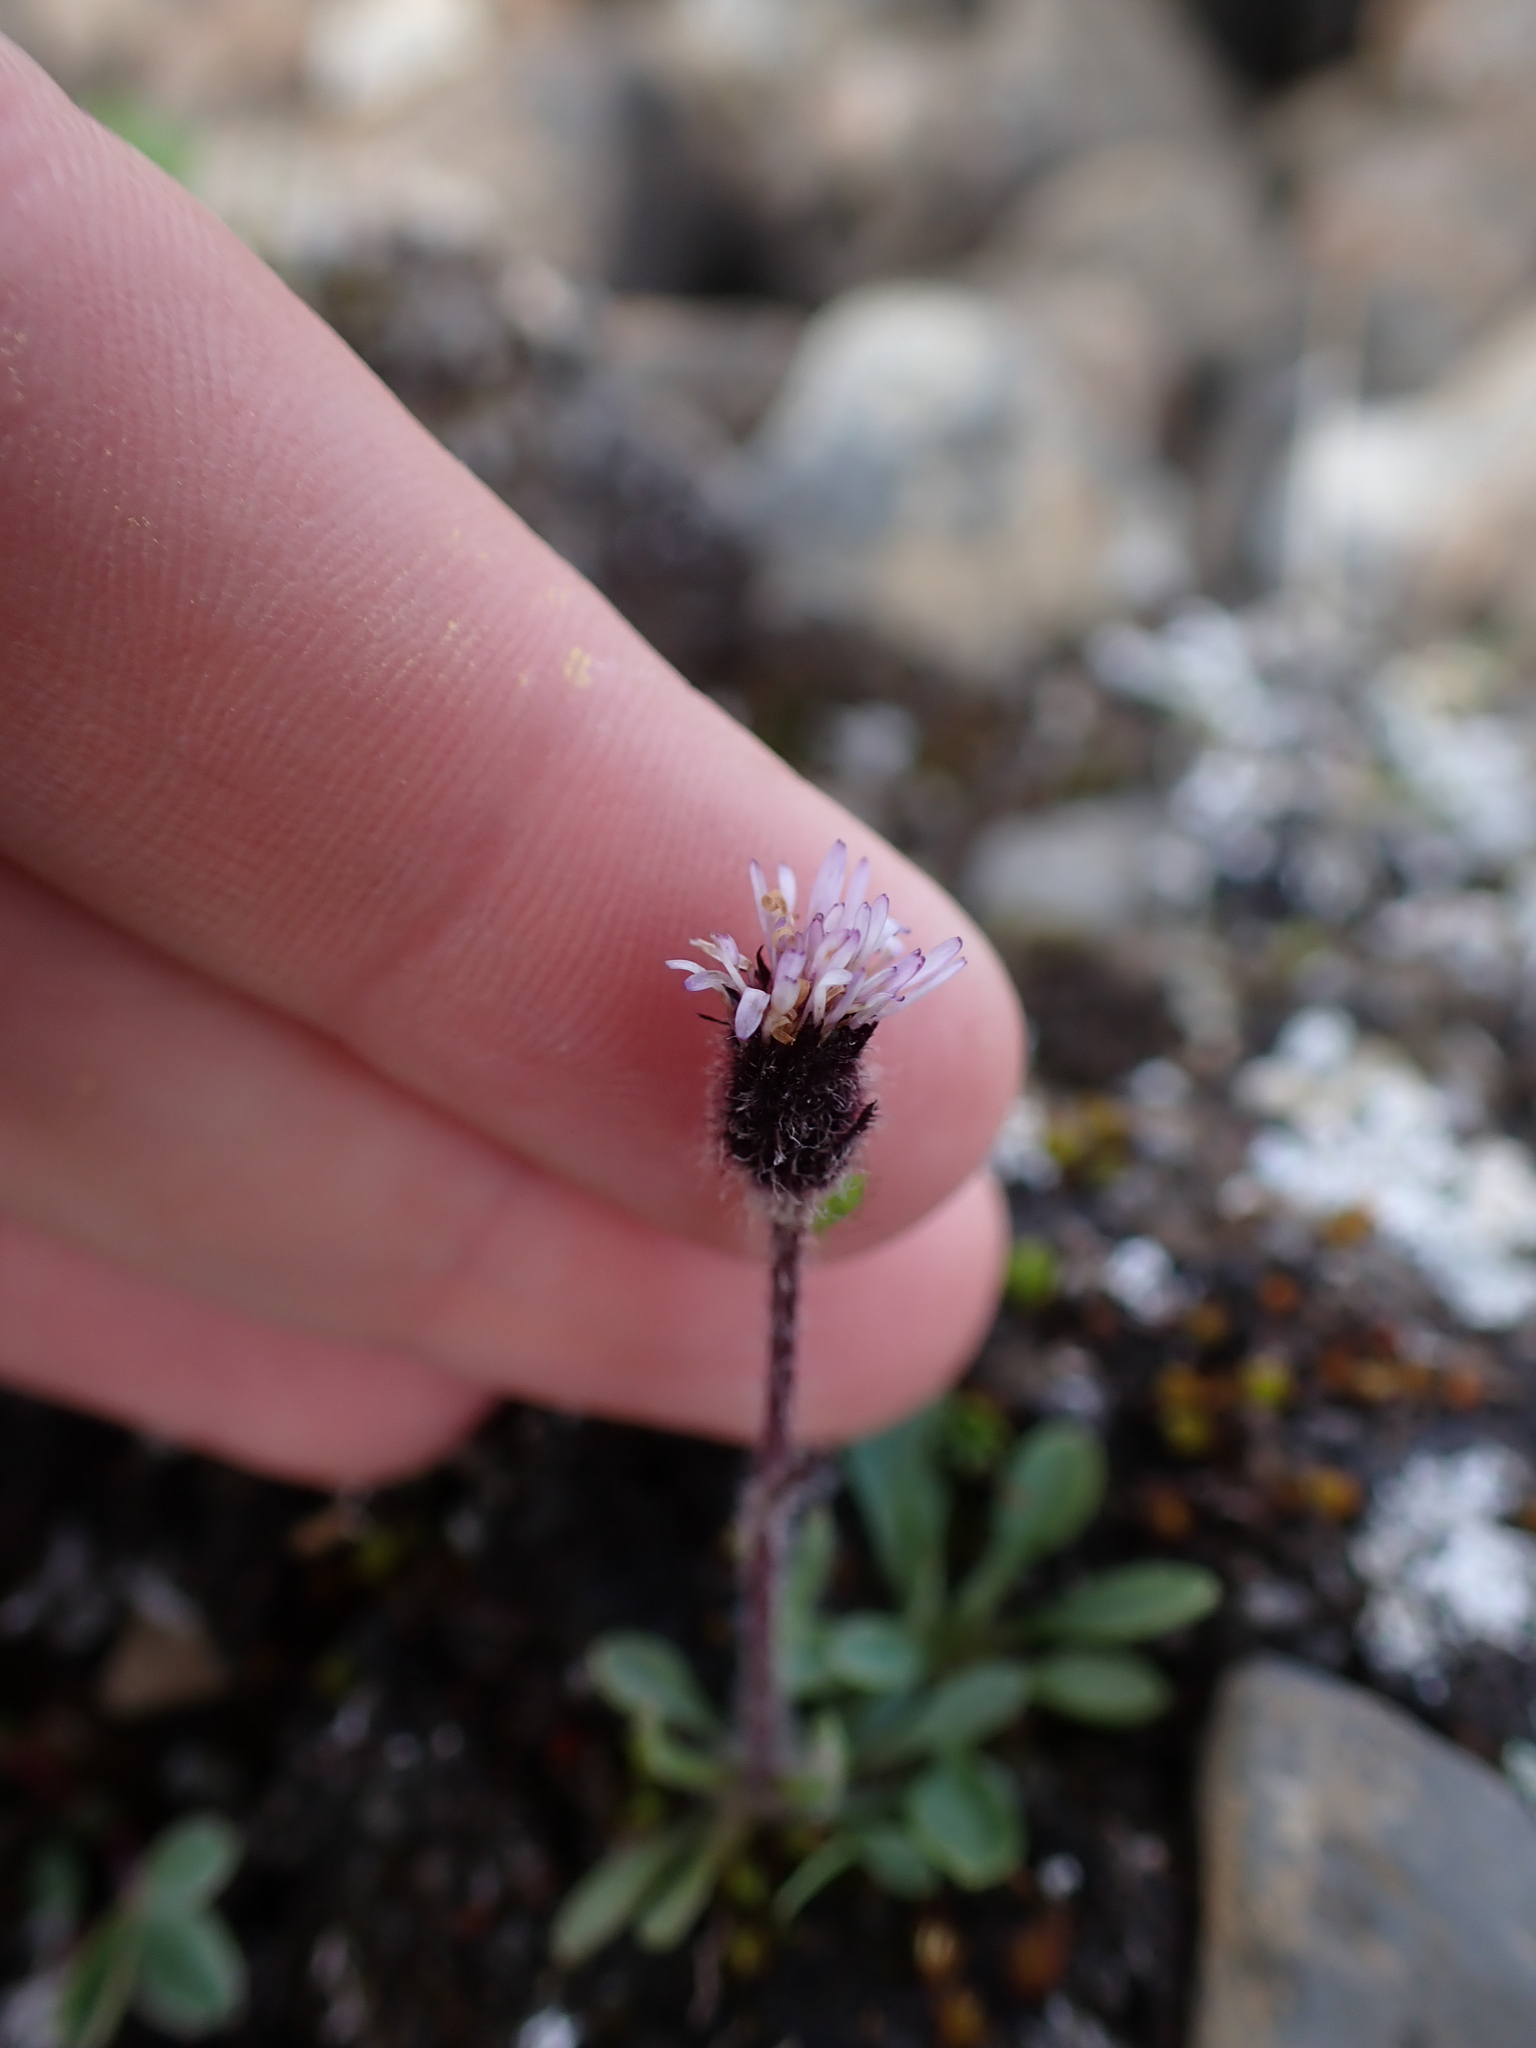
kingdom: Plantae
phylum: Tracheophyta
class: Magnoliopsida
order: Asterales
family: Asteraceae
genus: Erigeron
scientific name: Erigeron humilis
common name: Arctic-alpine fleabane
